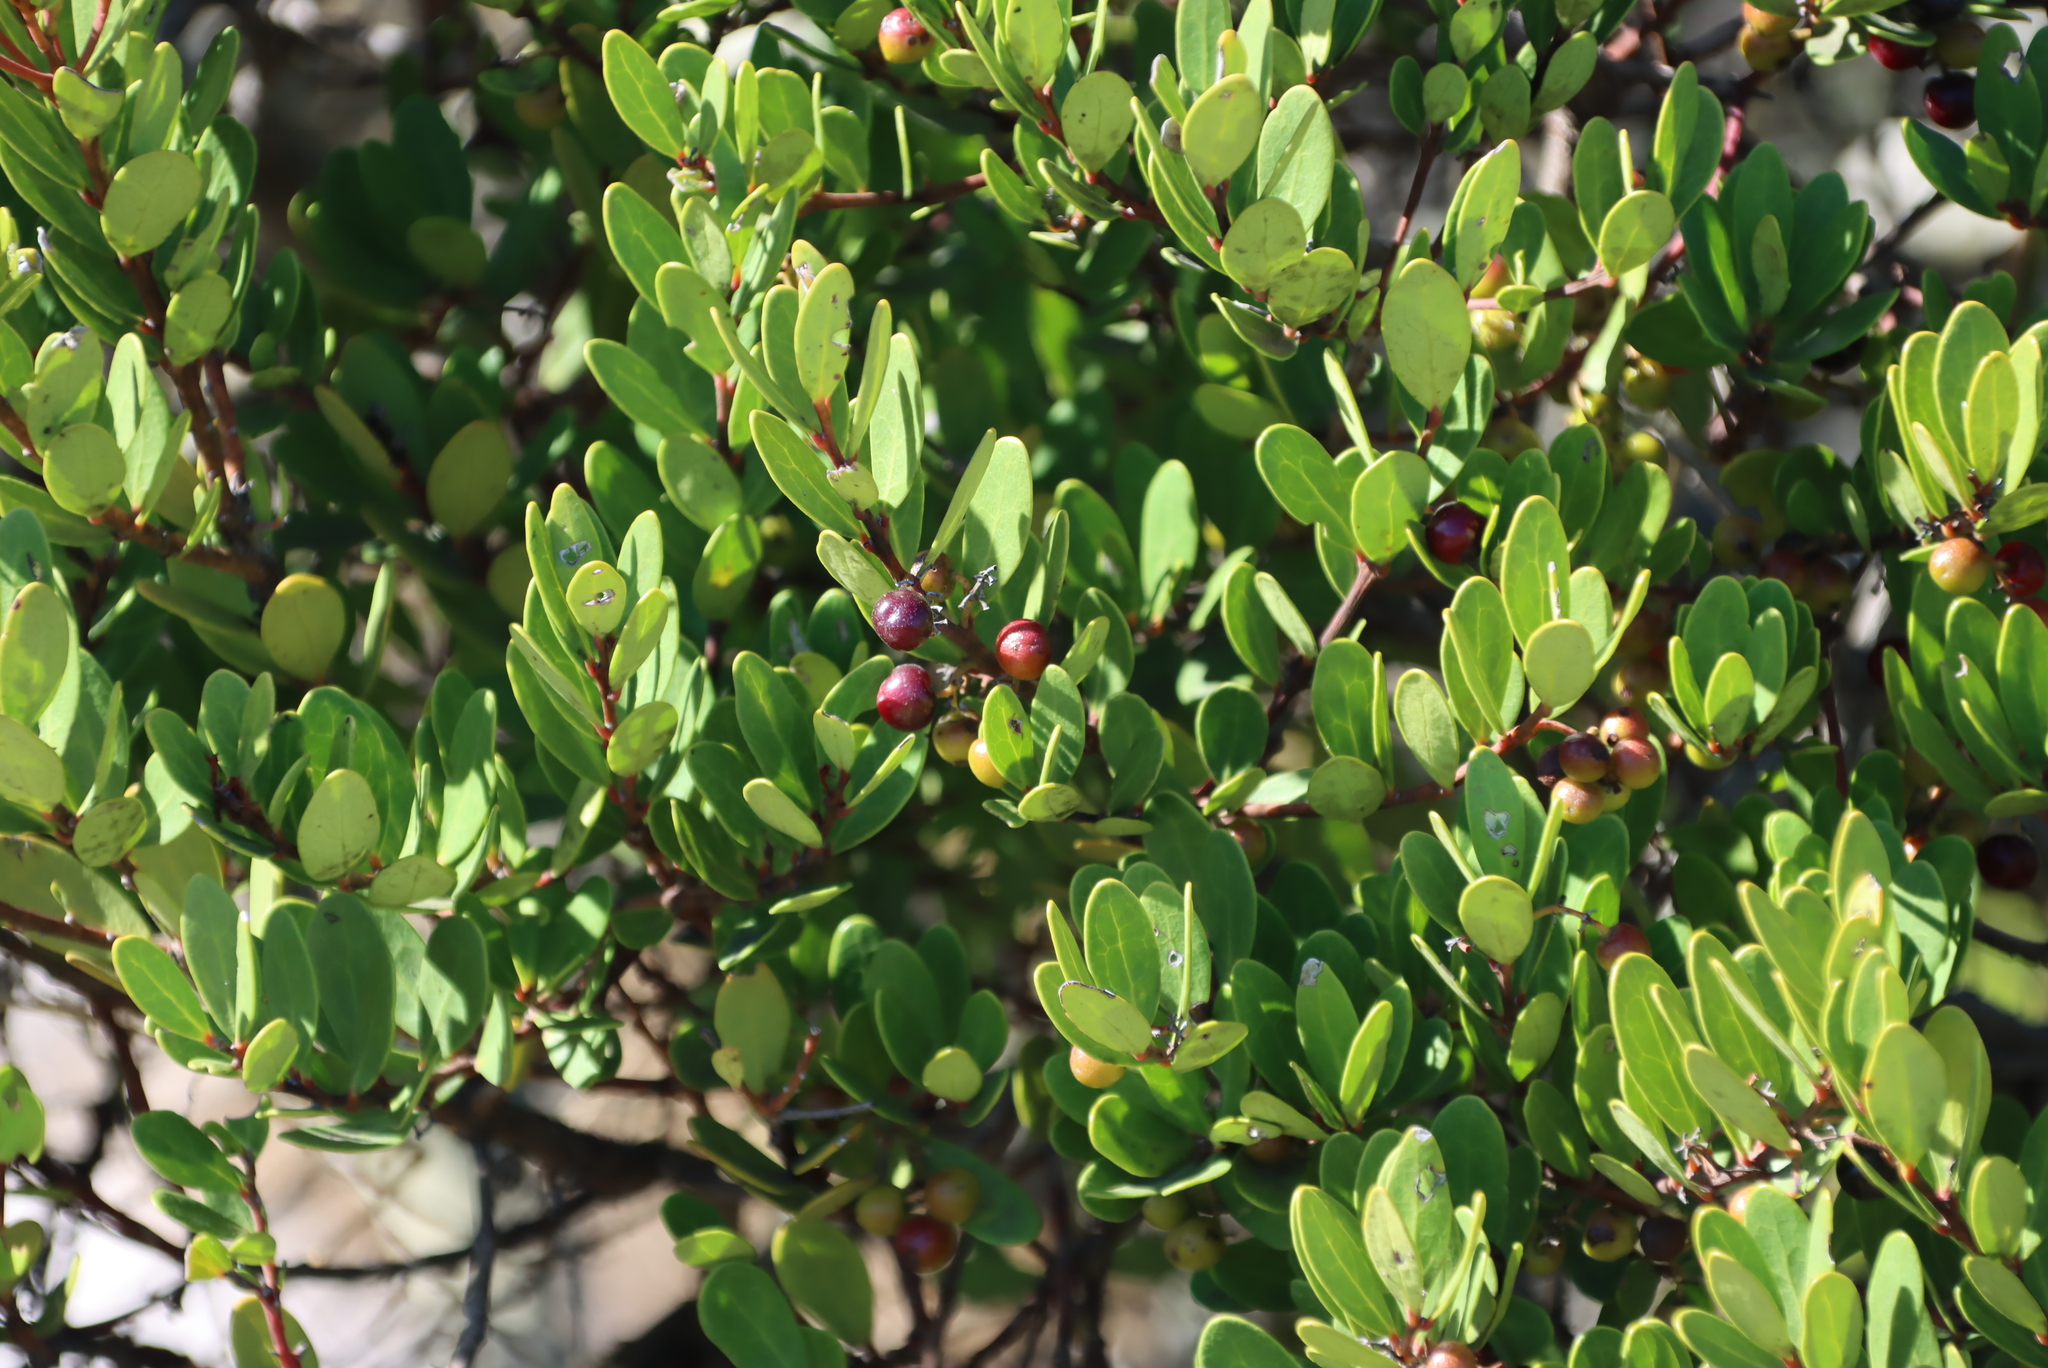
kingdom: Plantae
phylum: Tracheophyta
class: Magnoliopsida
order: Ericales
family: Ebenaceae
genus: Euclea
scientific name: Euclea racemosa
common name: Dune guarri
